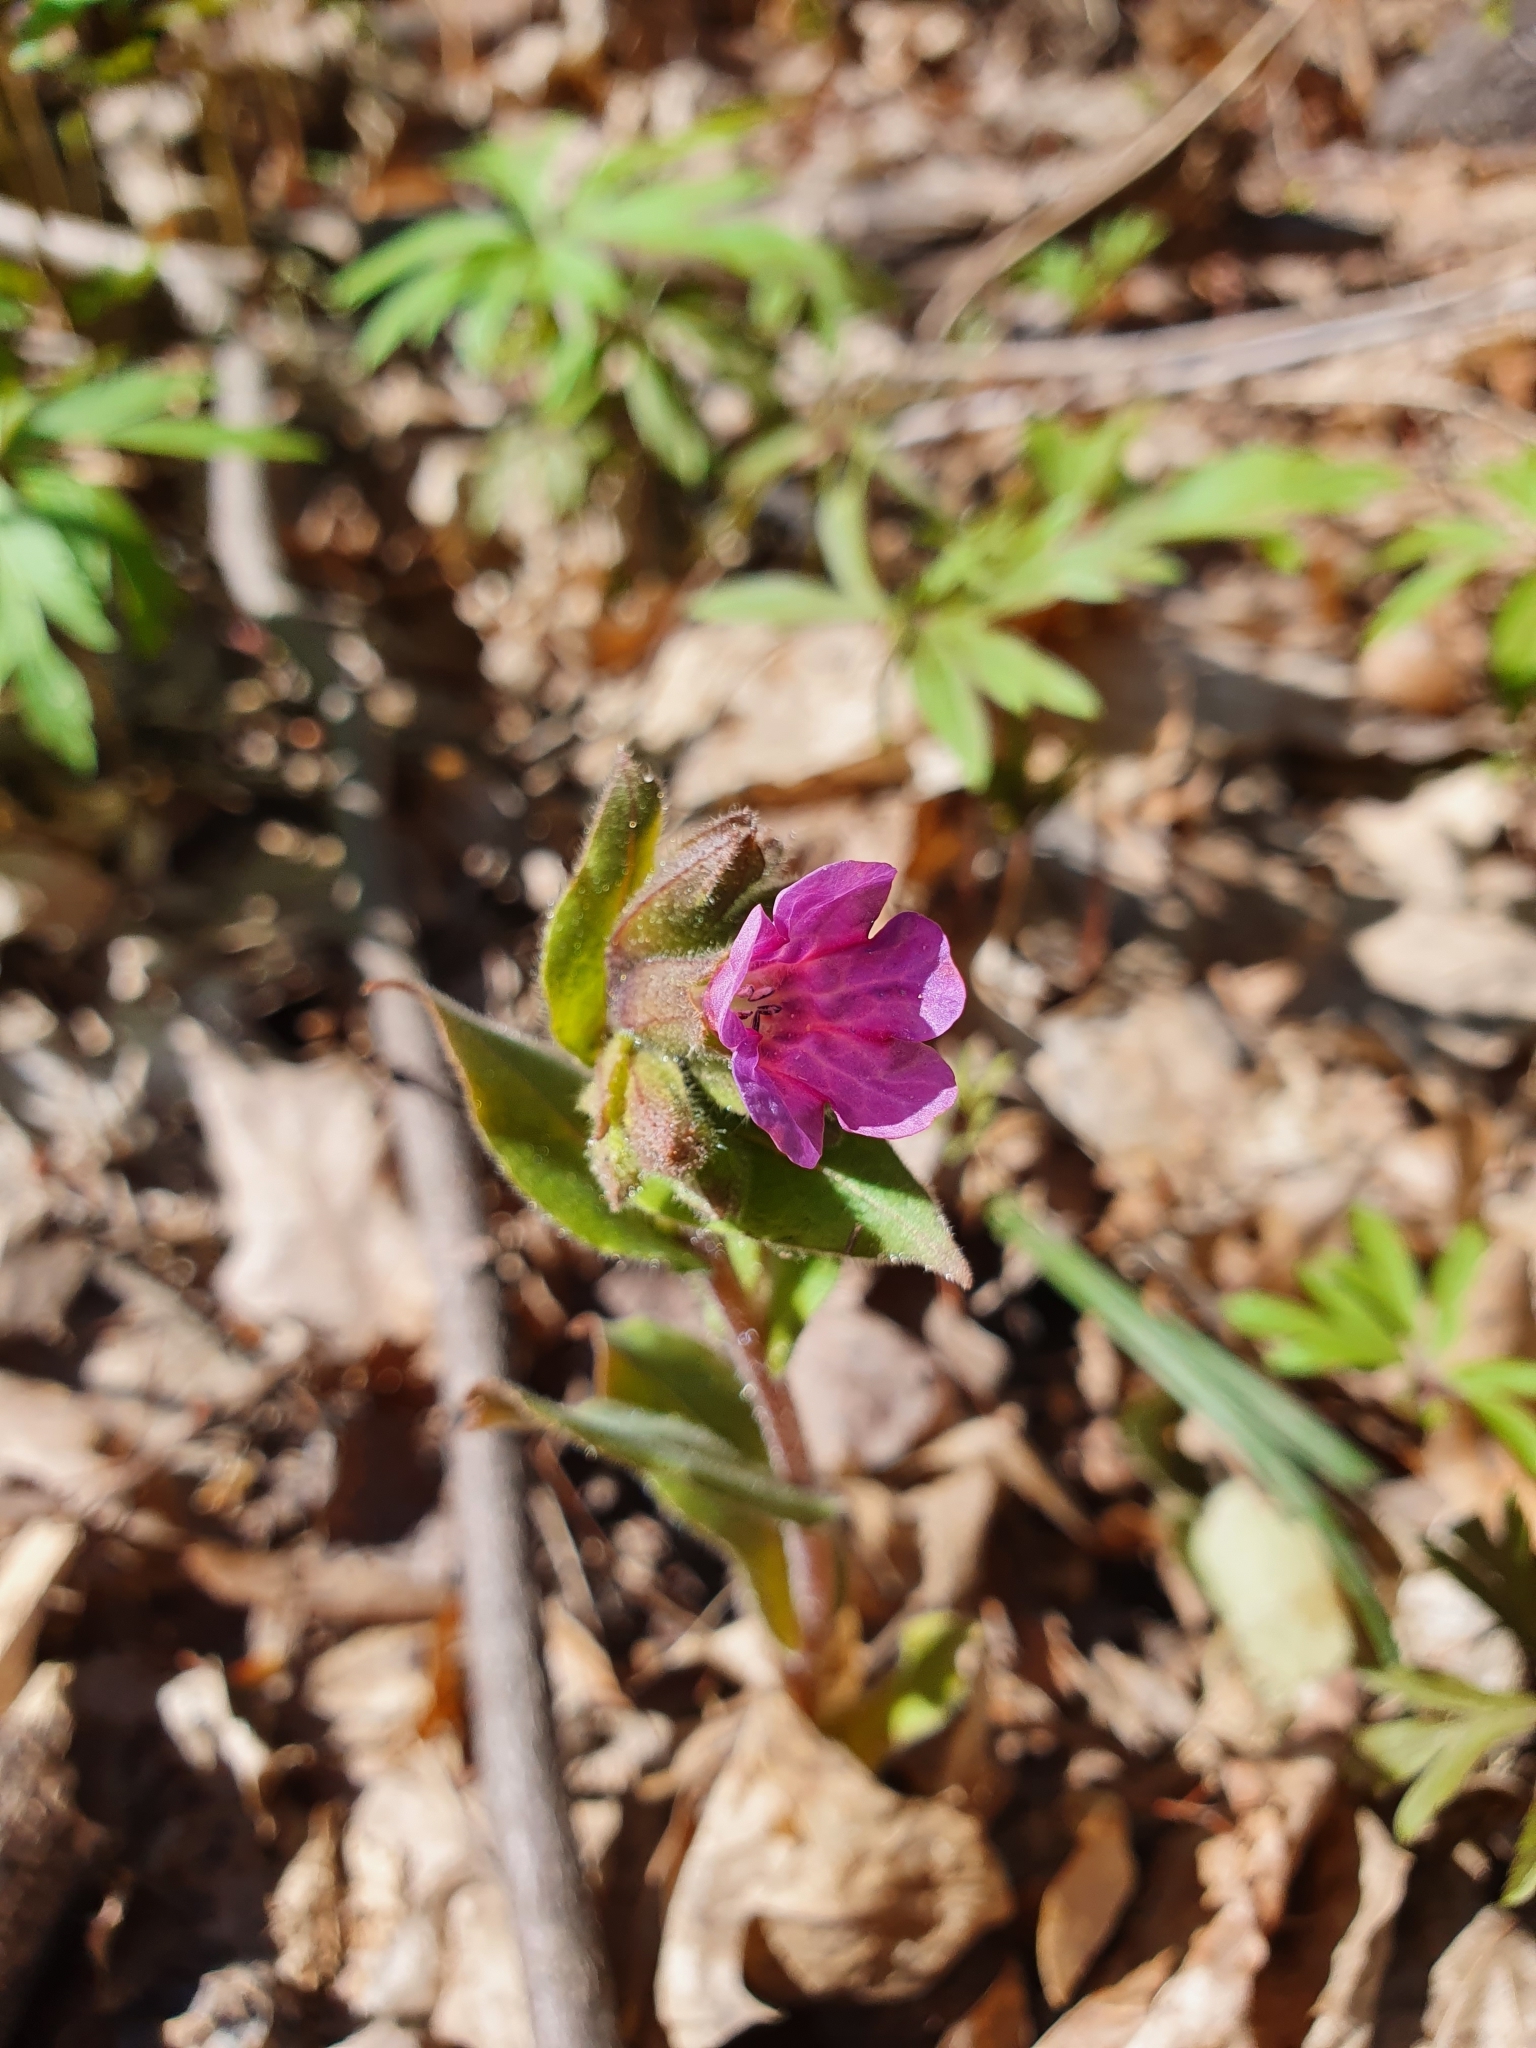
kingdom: Plantae
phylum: Tracheophyta
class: Magnoliopsida
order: Boraginales
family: Boraginaceae
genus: Pulmonaria
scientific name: Pulmonaria obscura
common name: Suffolk lungwort
